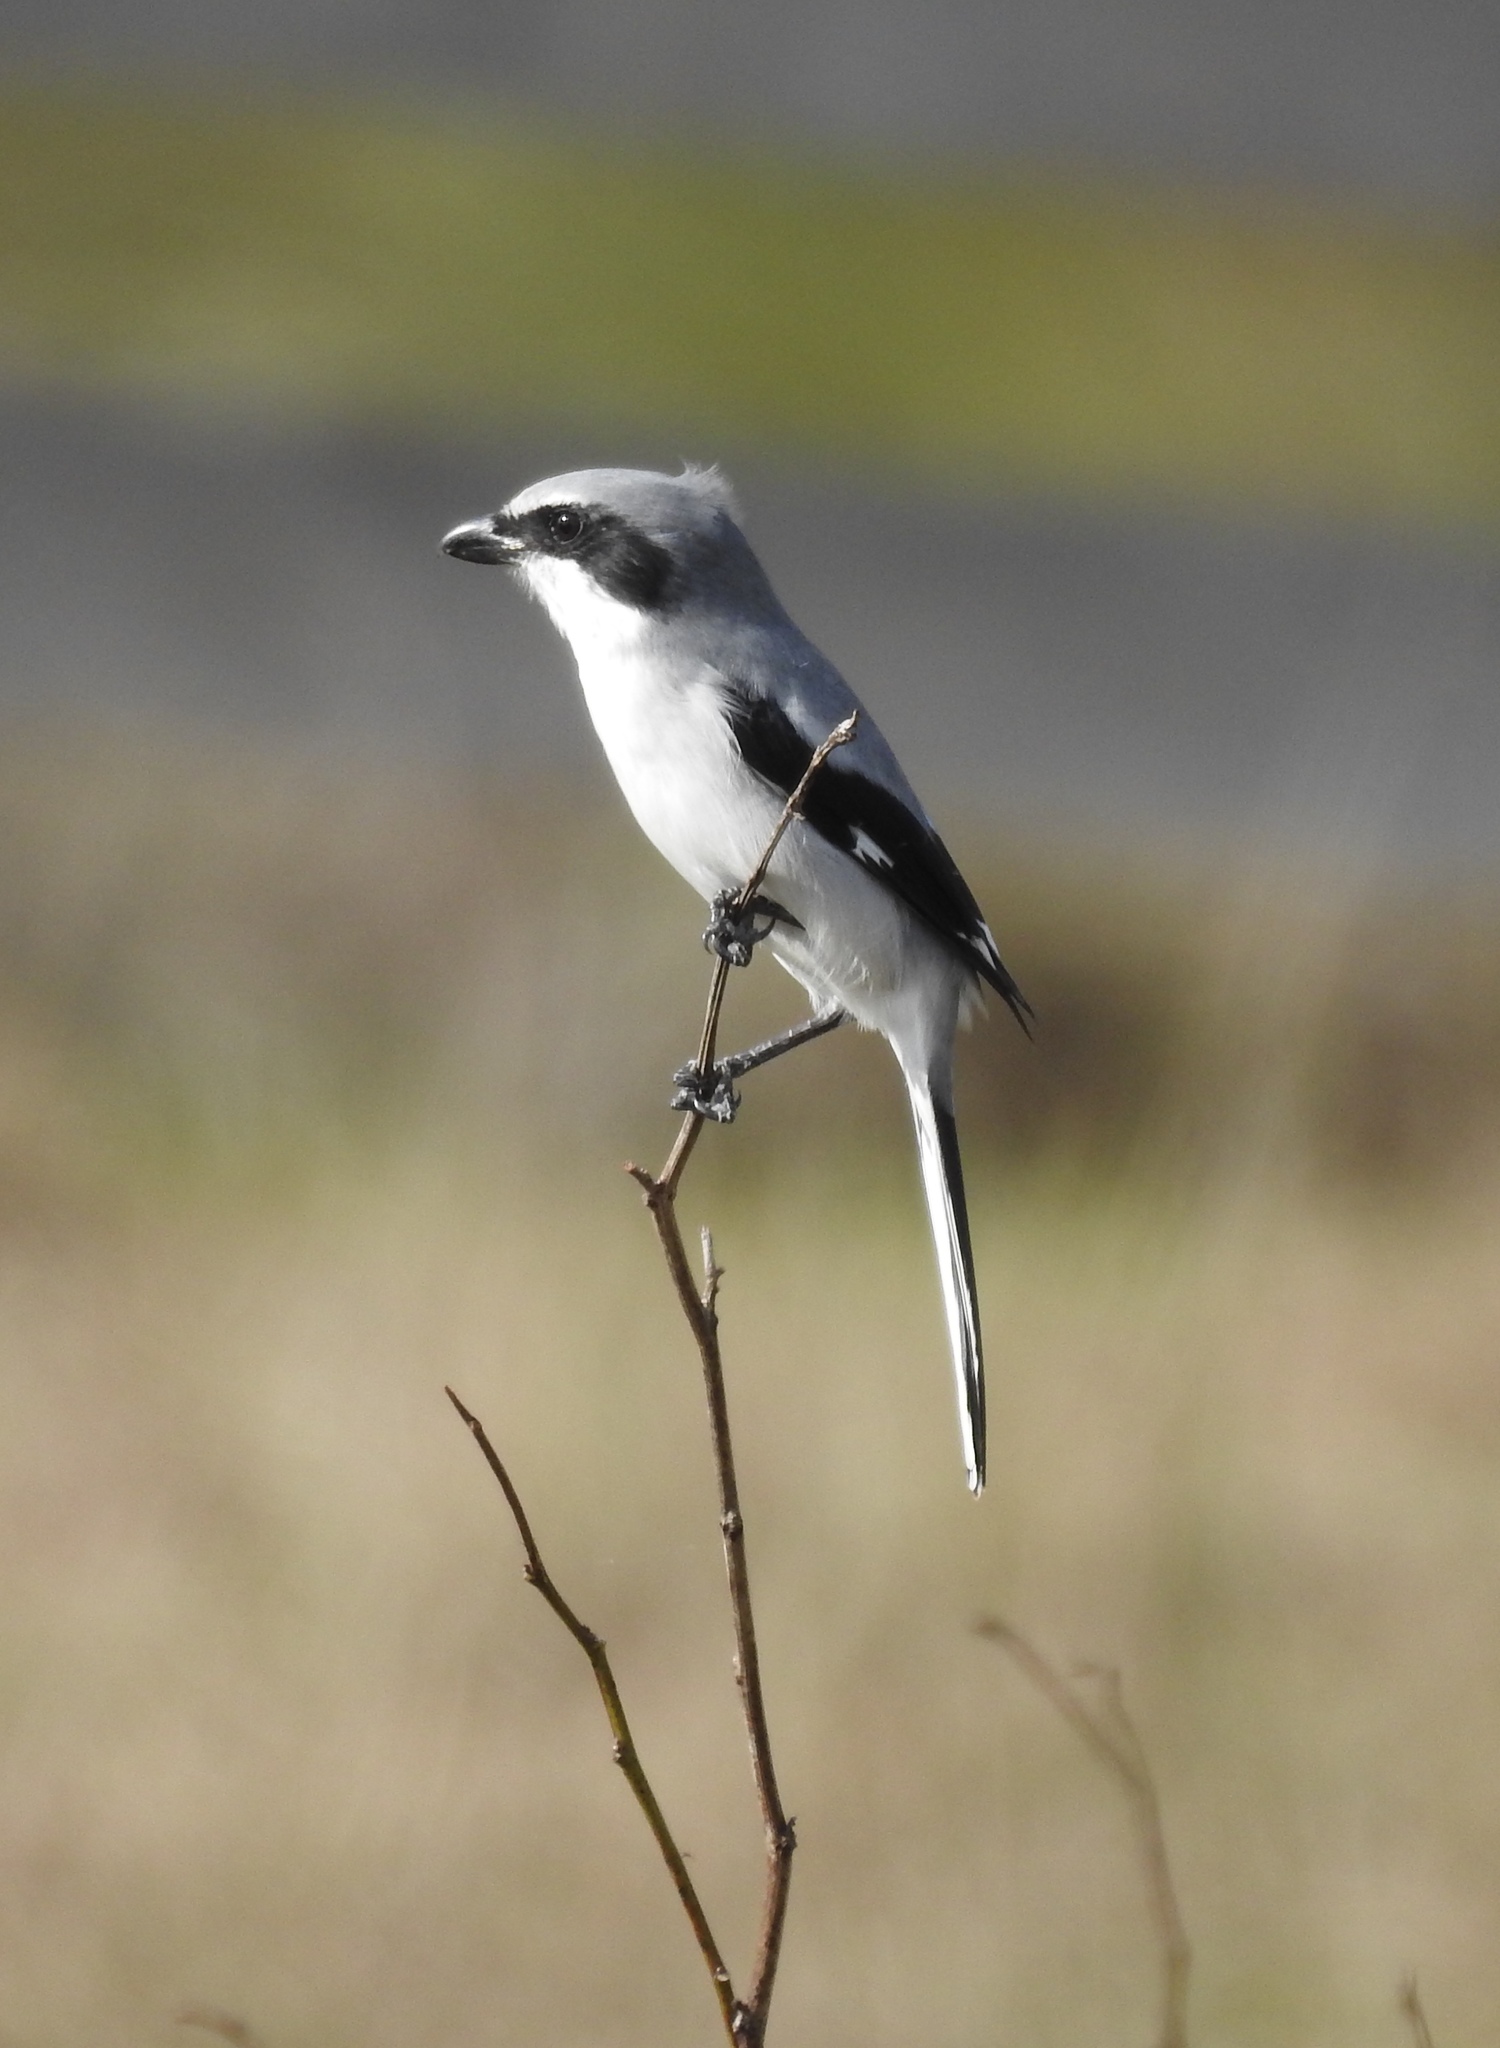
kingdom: Animalia
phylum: Chordata
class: Aves
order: Passeriformes
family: Laniidae
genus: Lanius
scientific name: Lanius ludovicianus
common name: Loggerhead shrike
